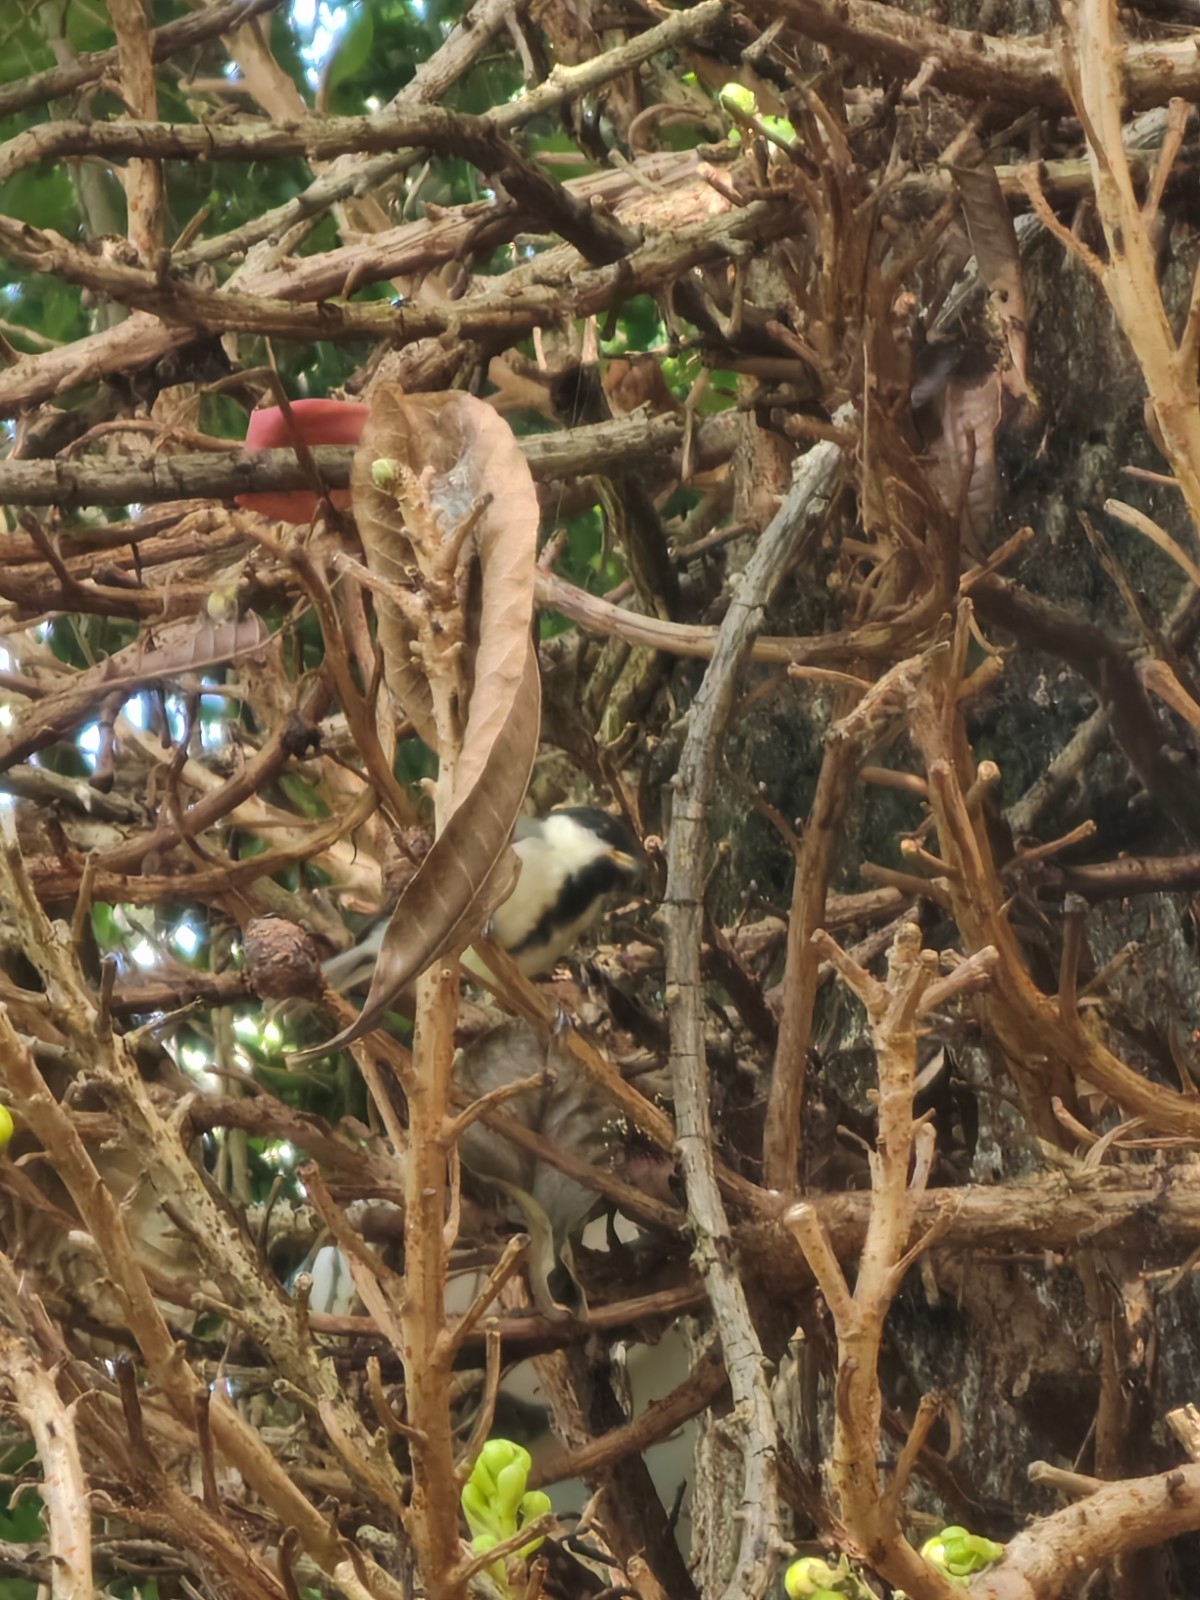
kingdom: Animalia
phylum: Chordata
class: Aves
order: Passeriformes
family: Paridae
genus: Parus
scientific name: Parus cinereus
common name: Cinereous tit
